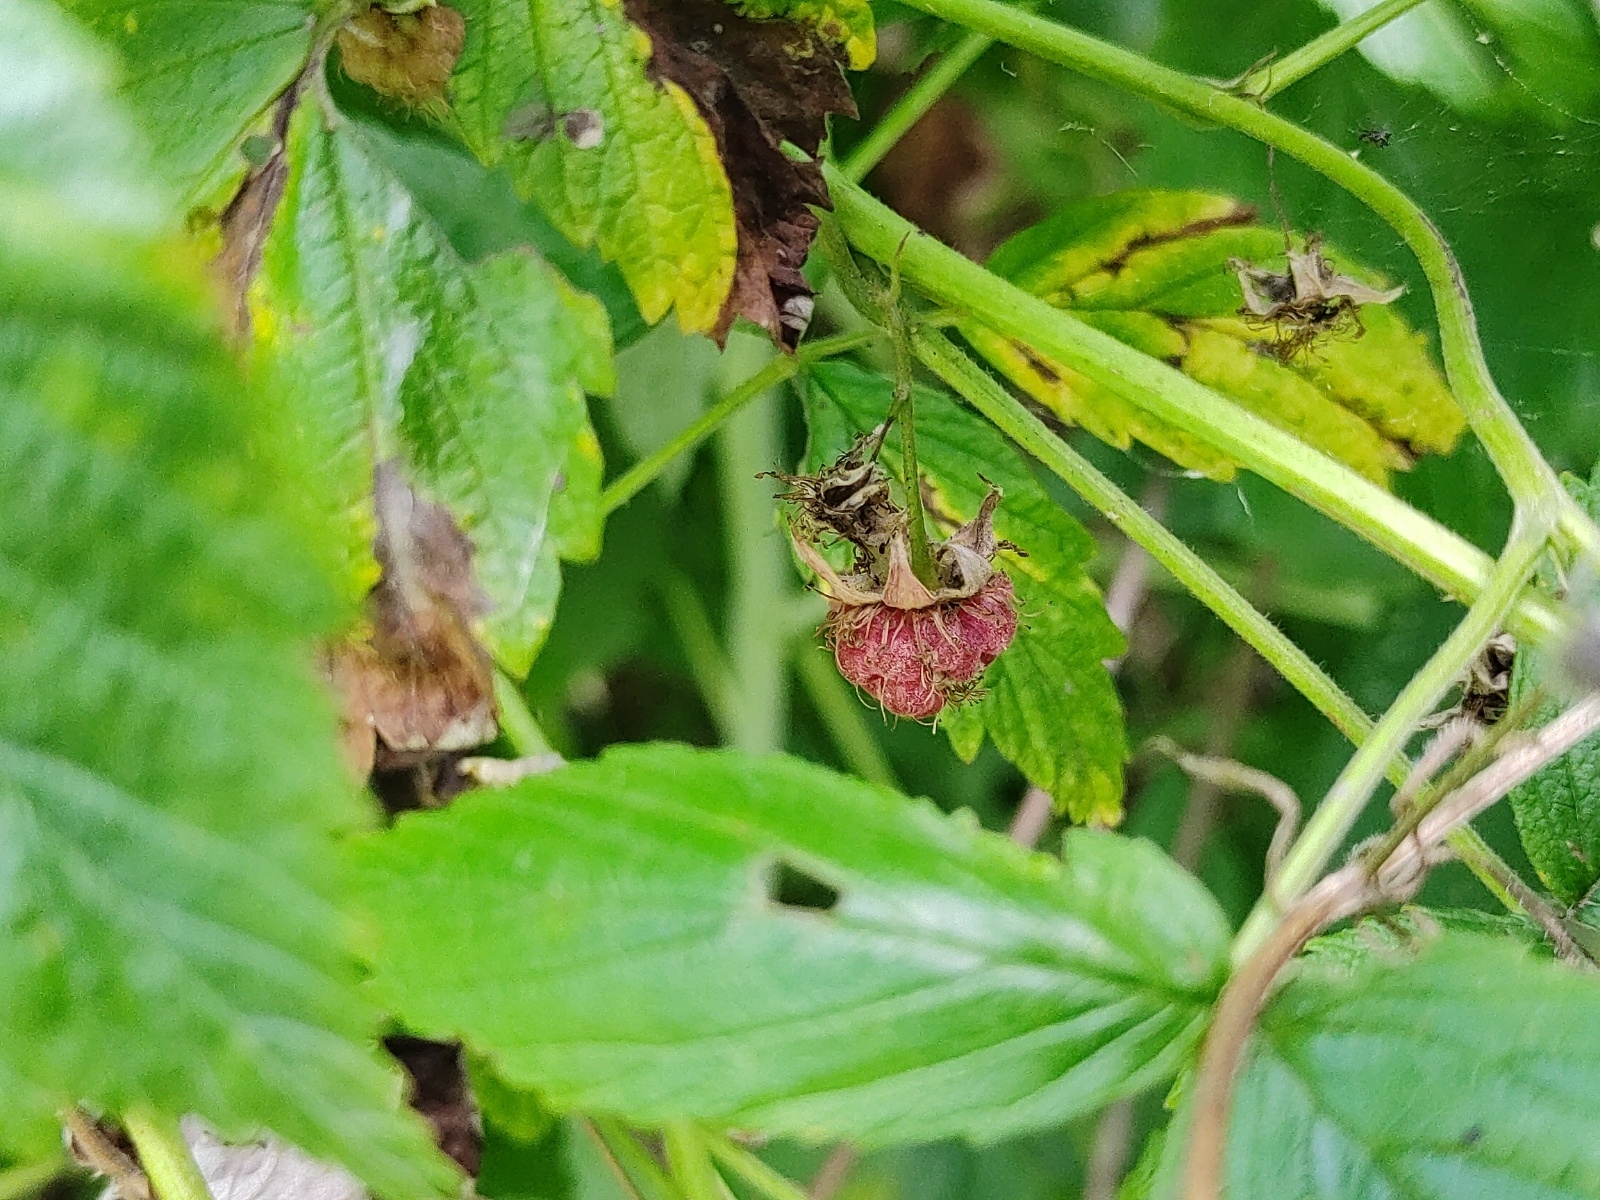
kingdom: Plantae
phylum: Tracheophyta
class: Magnoliopsida
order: Rosales
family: Rosaceae
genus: Rubus
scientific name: Rubus idaeus
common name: Raspberry
